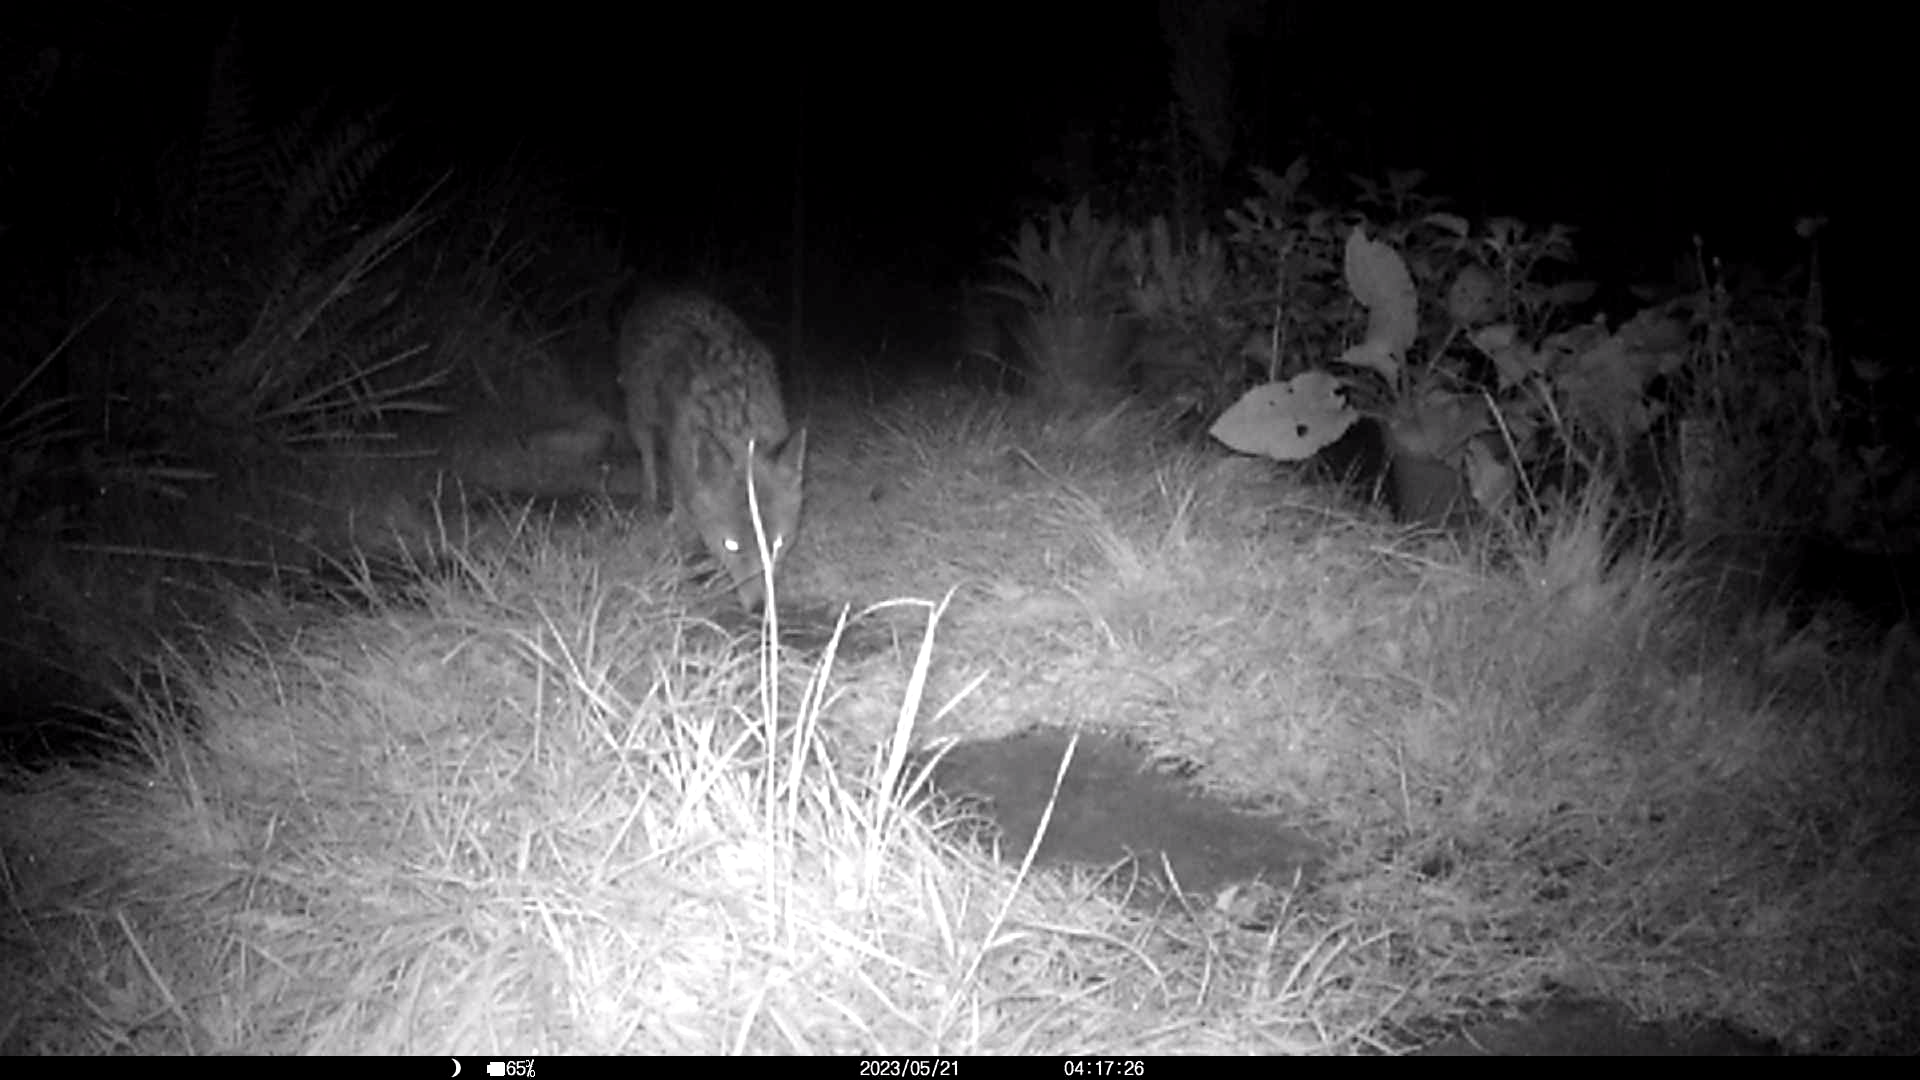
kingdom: Animalia
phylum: Chordata
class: Mammalia
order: Carnivora
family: Canidae
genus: Vulpes
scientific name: Vulpes vulpes
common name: Red fox
